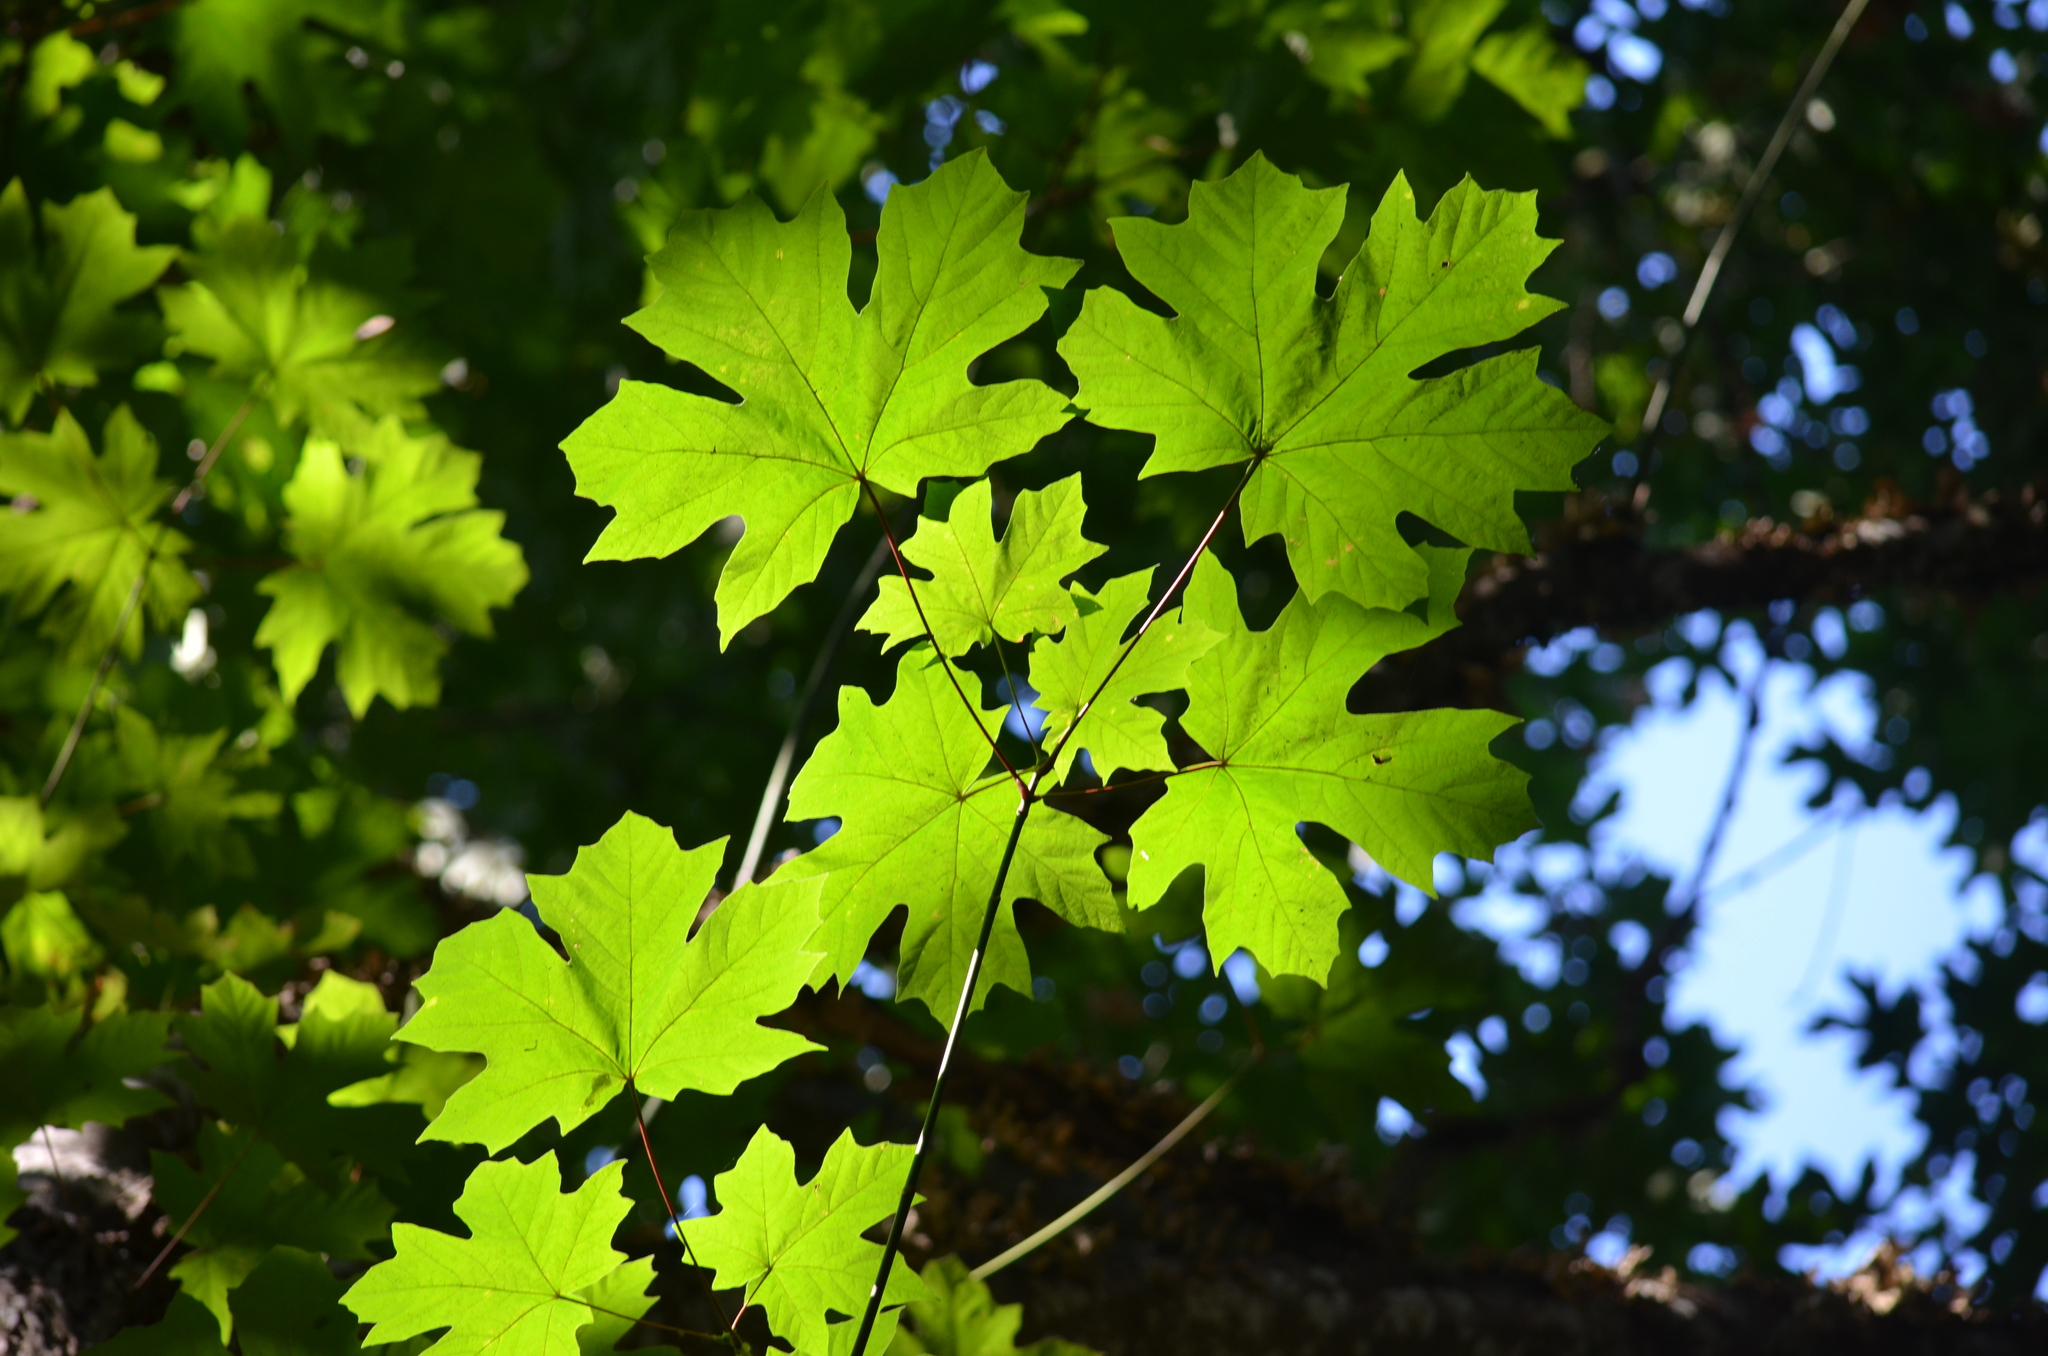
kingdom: Plantae
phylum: Tracheophyta
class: Magnoliopsida
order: Sapindales
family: Sapindaceae
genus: Acer
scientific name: Acer macrophyllum
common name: Oregon maple
